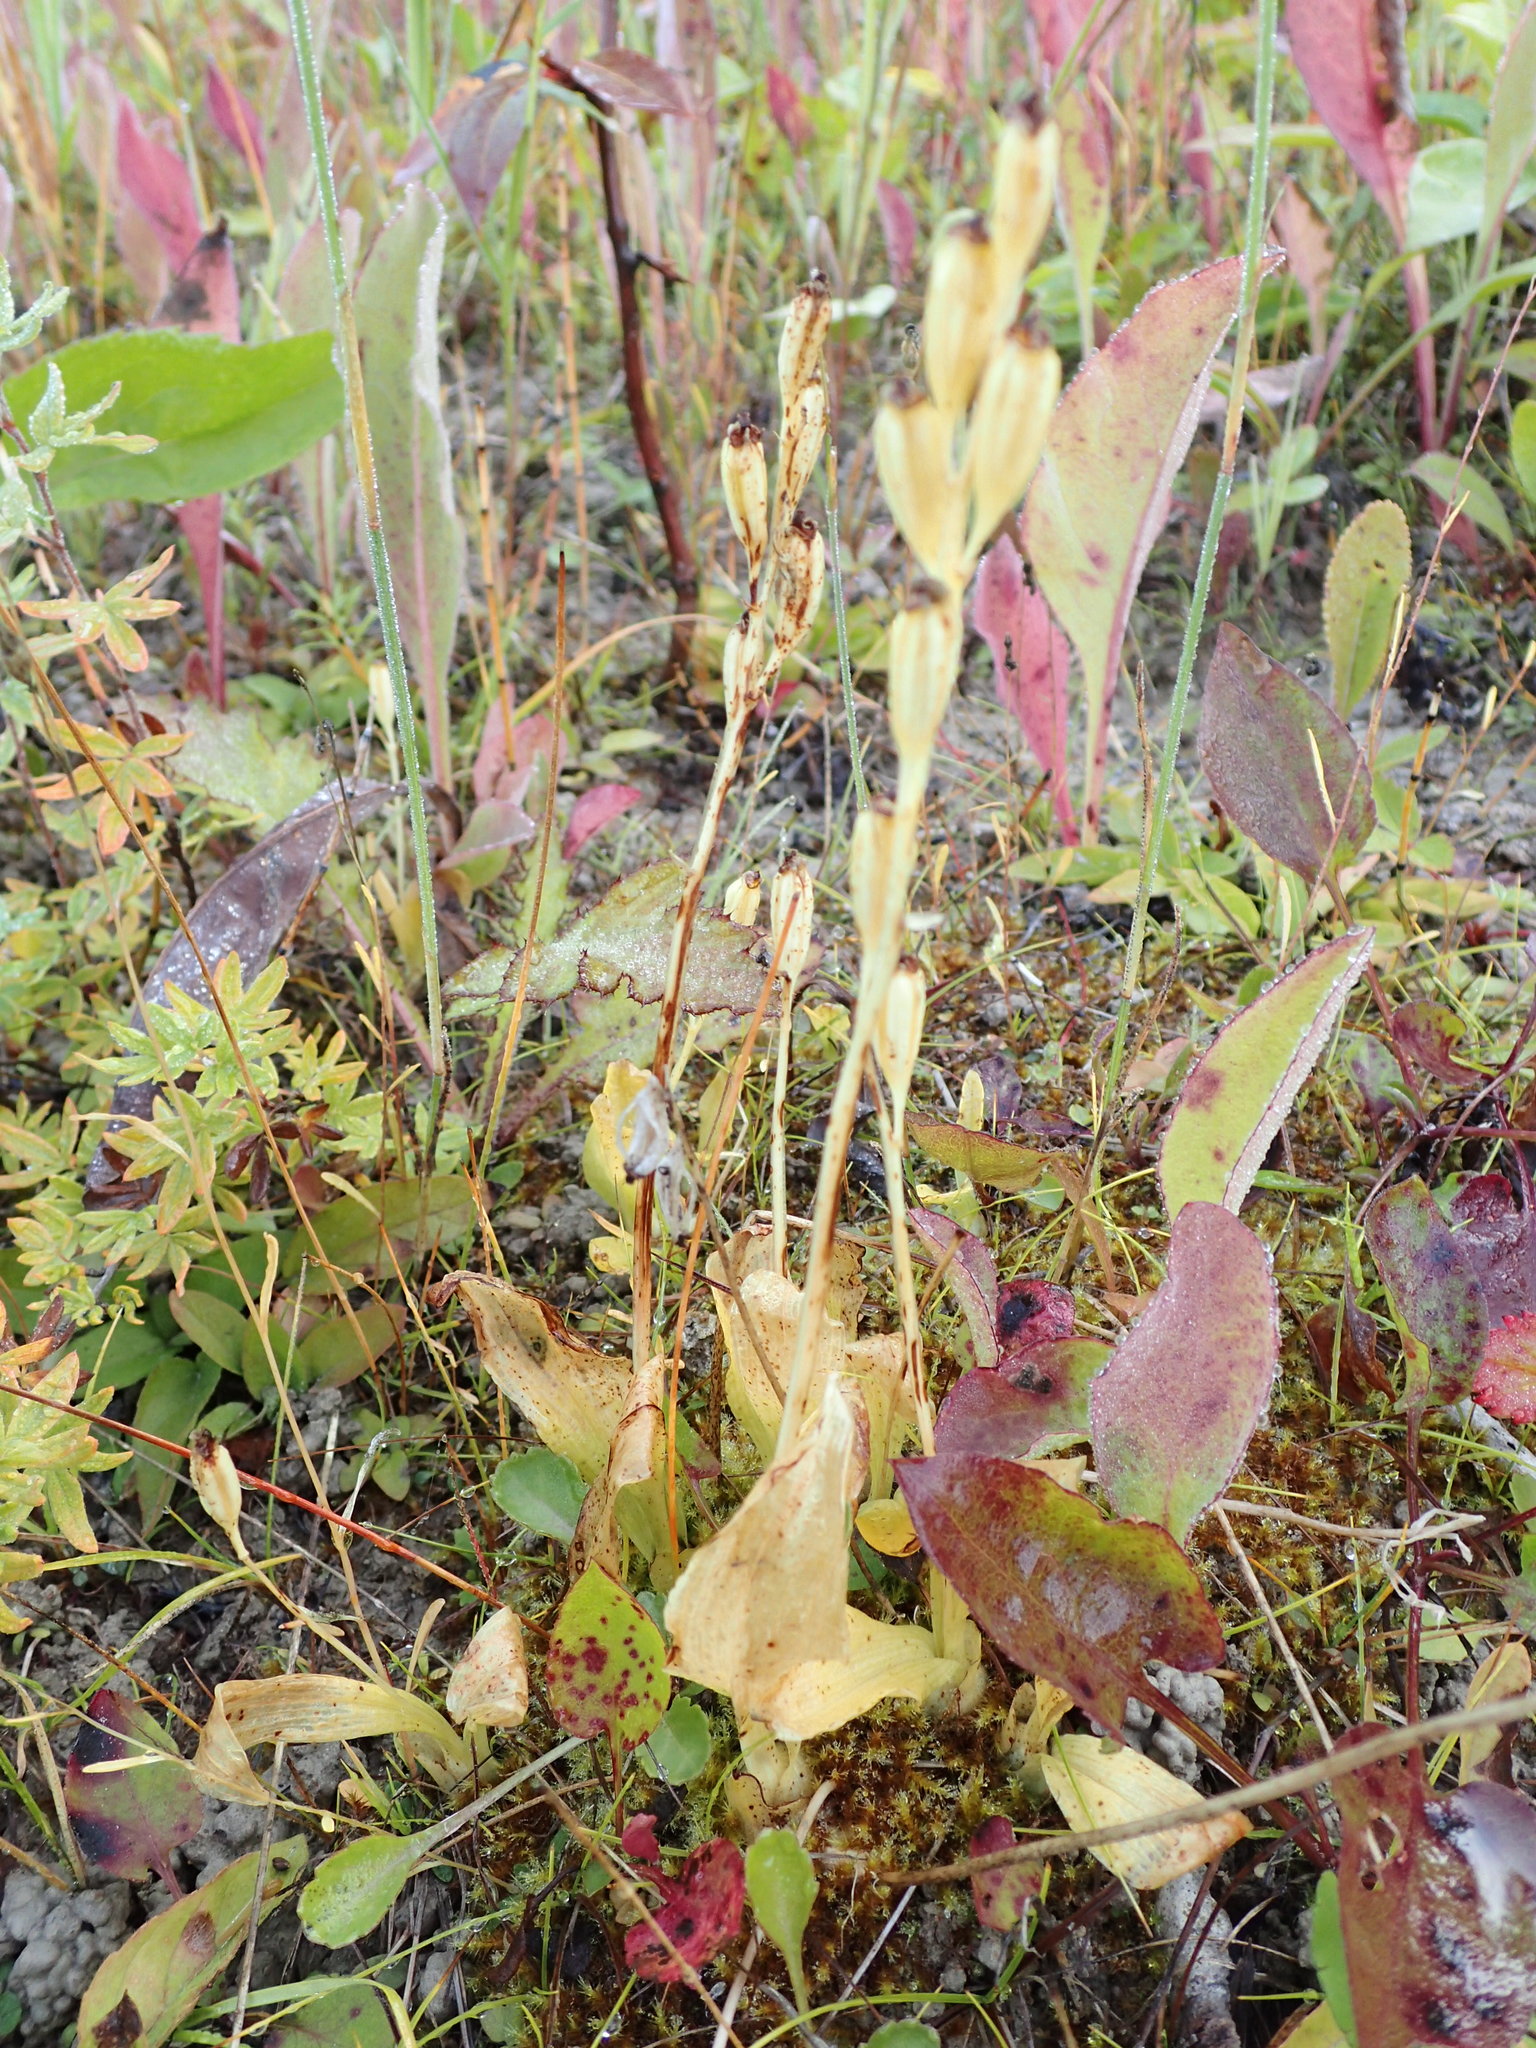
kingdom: Animalia
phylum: Arthropoda
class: Insecta
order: Coleoptera
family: Curculionidae
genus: Liparis
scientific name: Liparis loeselii
